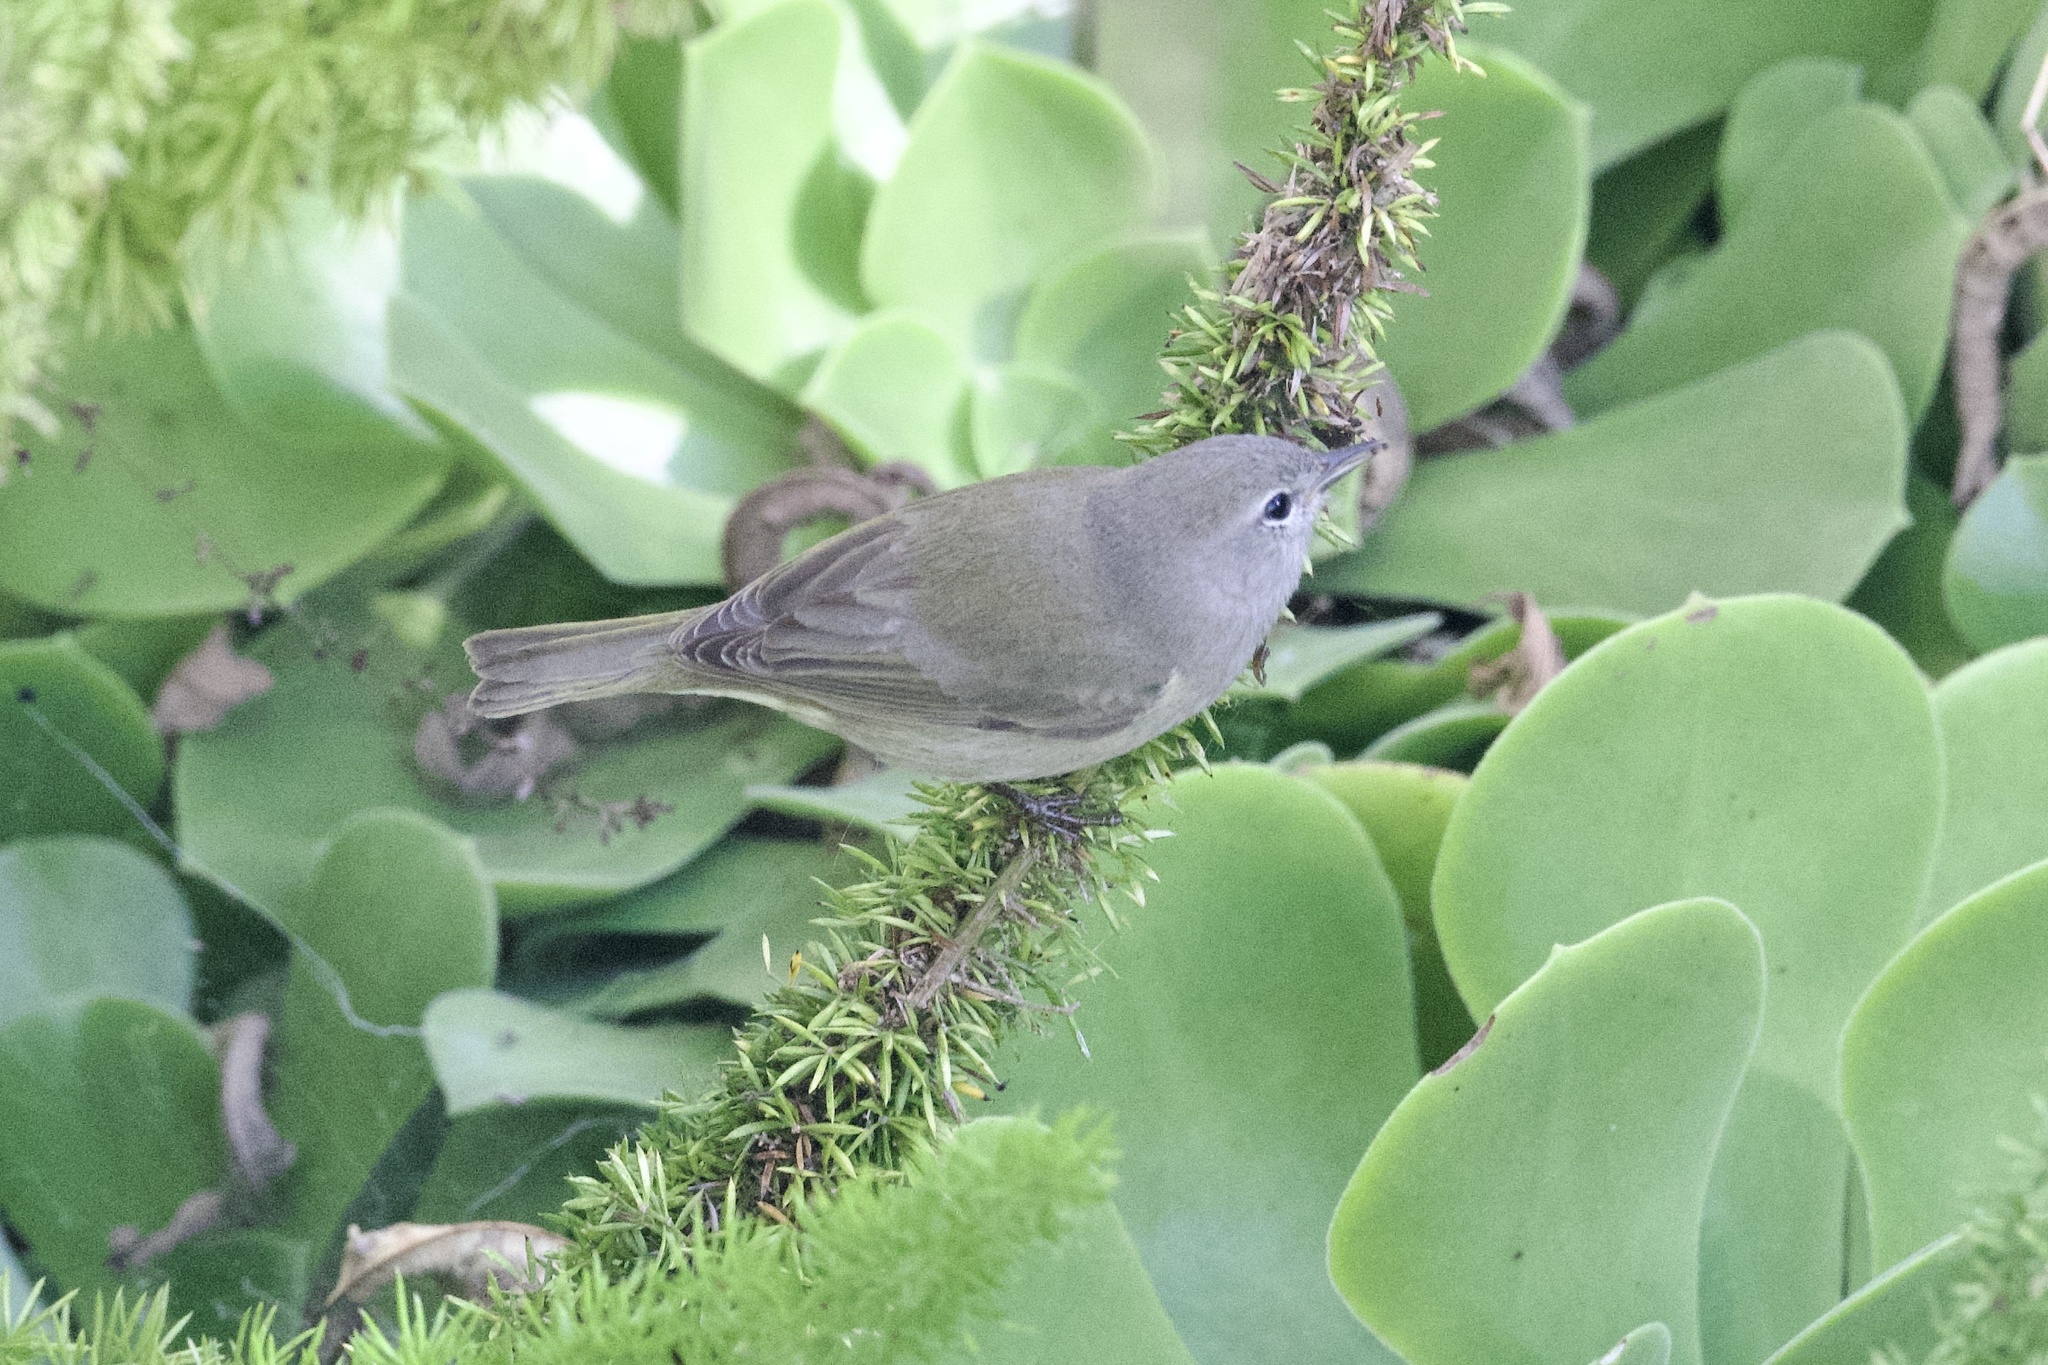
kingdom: Animalia
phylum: Chordata
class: Aves
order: Passeriformes
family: Parulidae
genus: Leiothlypis
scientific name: Leiothlypis celata
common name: Orange-crowned warbler
